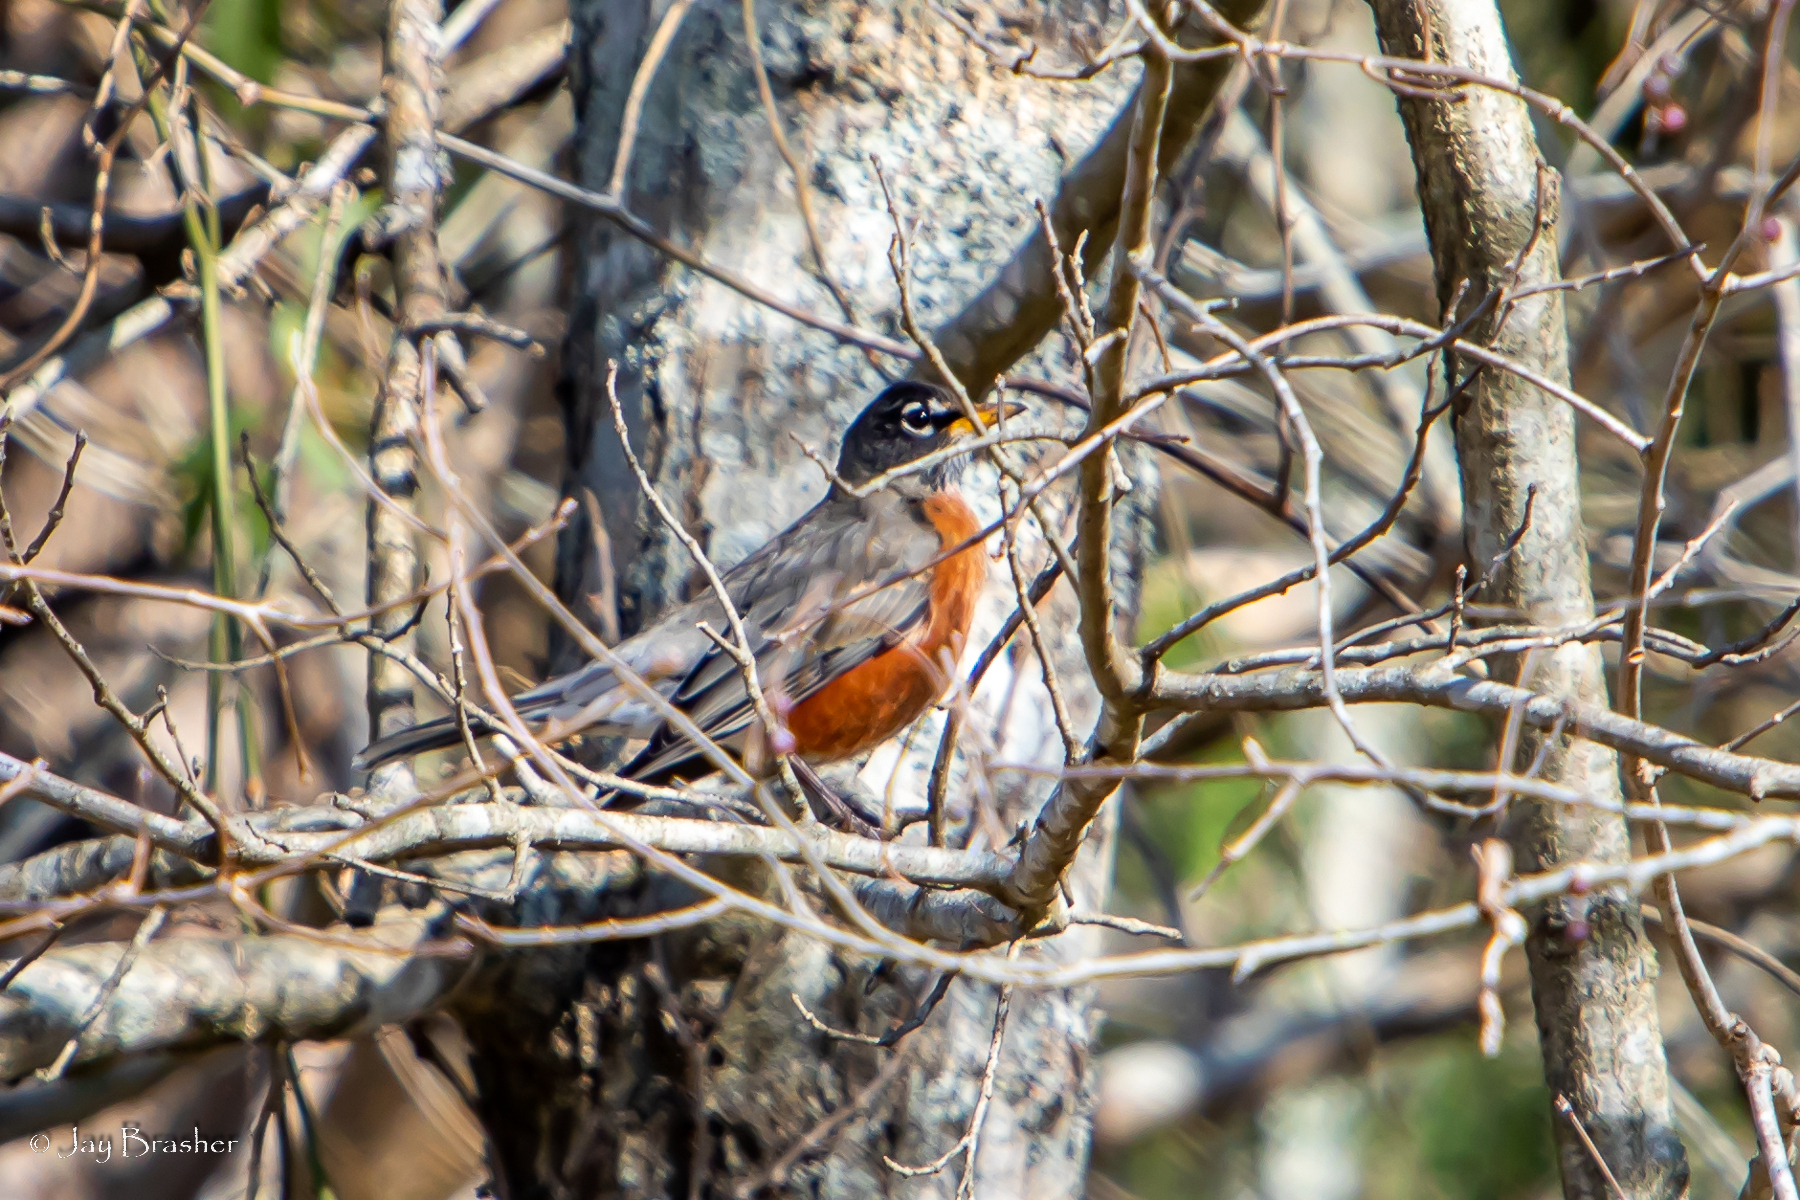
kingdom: Animalia
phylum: Chordata
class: Aves
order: Passeriformes
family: Turdidae
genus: Turdus
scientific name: Turdus migratorius
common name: American robin
